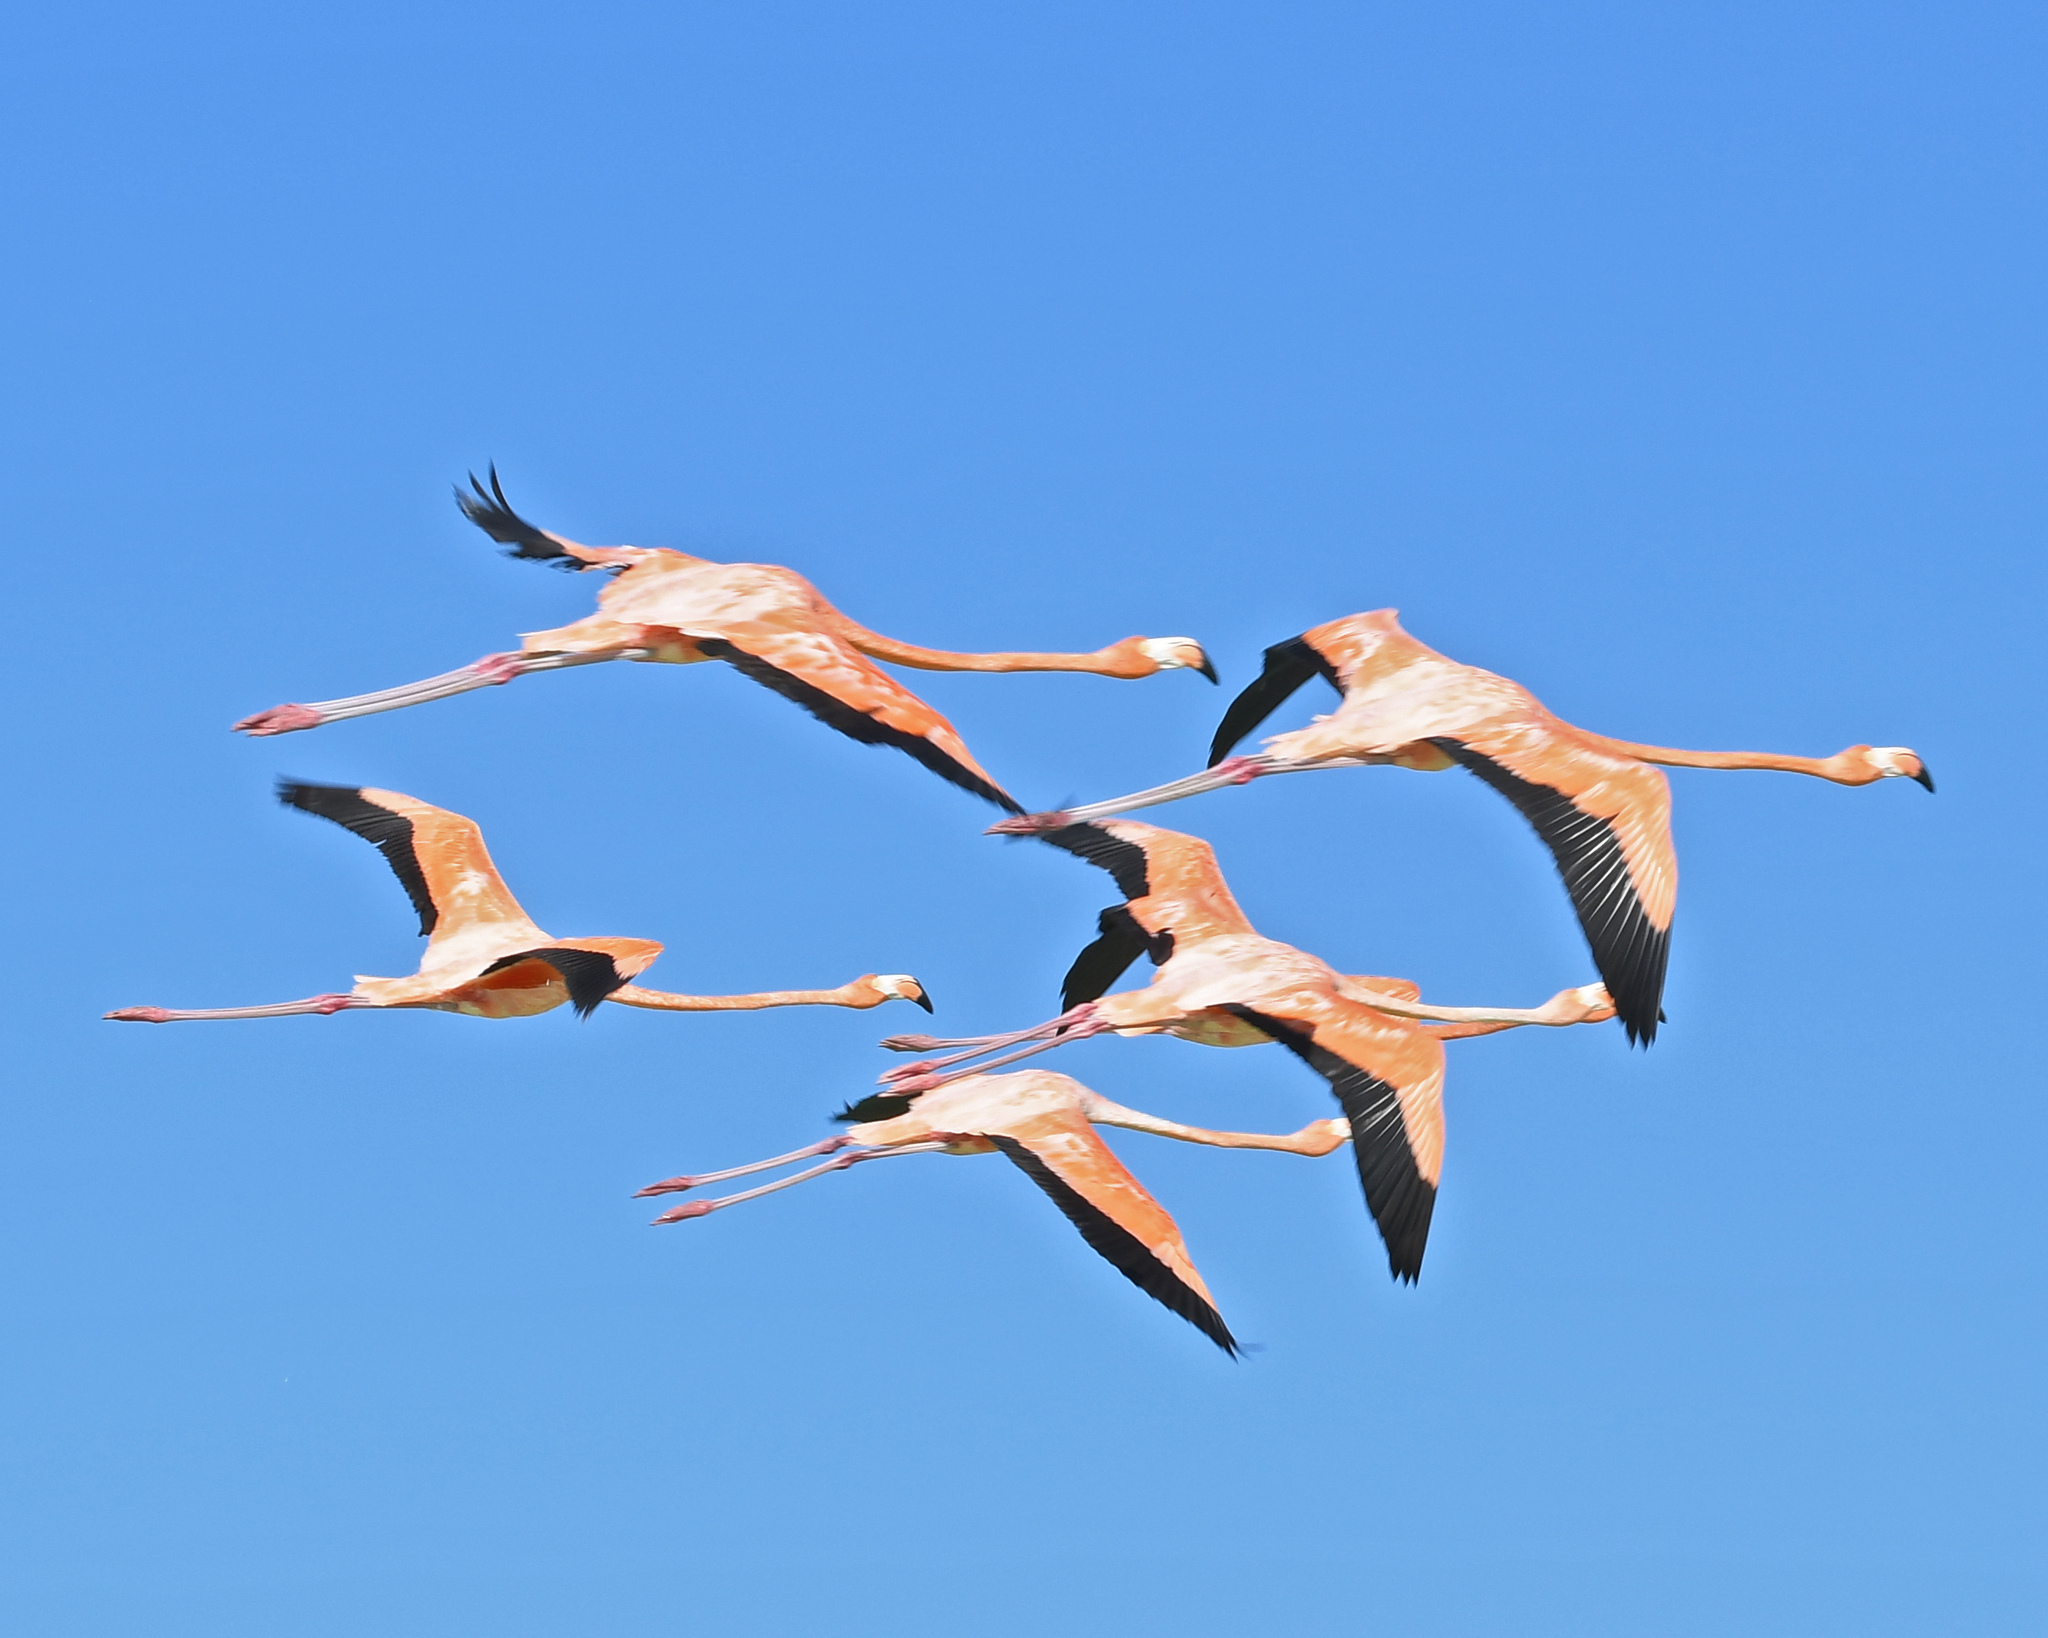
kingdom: Animalia
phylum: Chordata
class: Aves
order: Phoenicopteriformes
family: Phoenicopteridae
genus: Phoenicopterus
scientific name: Phoenicopterus ruber
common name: American flamingo
